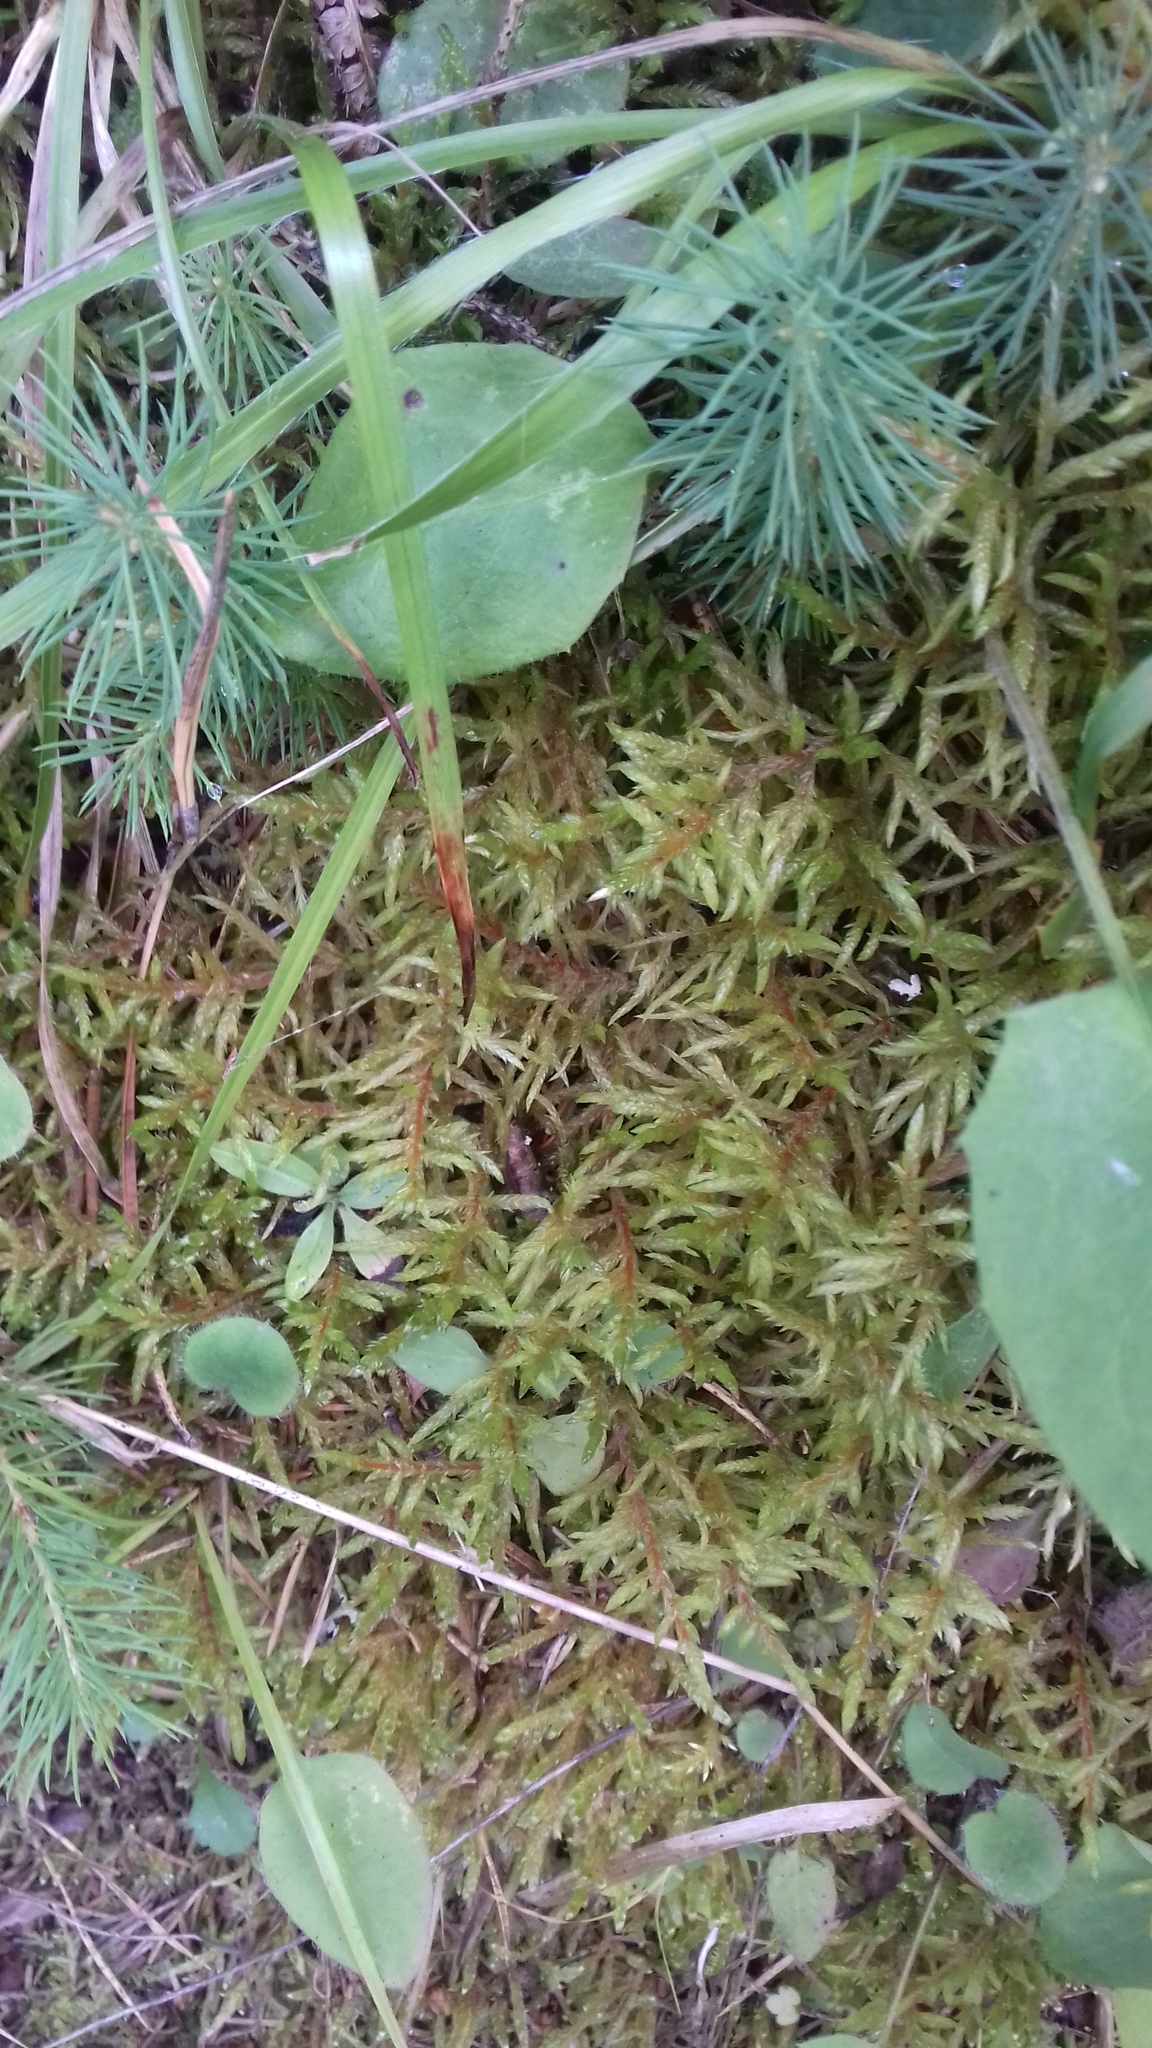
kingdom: Plantae
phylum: Bryophyta
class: Bryopsida
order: Hypnales
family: Hylocomiaceae
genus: Pleurozium
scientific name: Pleurozium schreberi
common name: Red-stemmed feather moss
